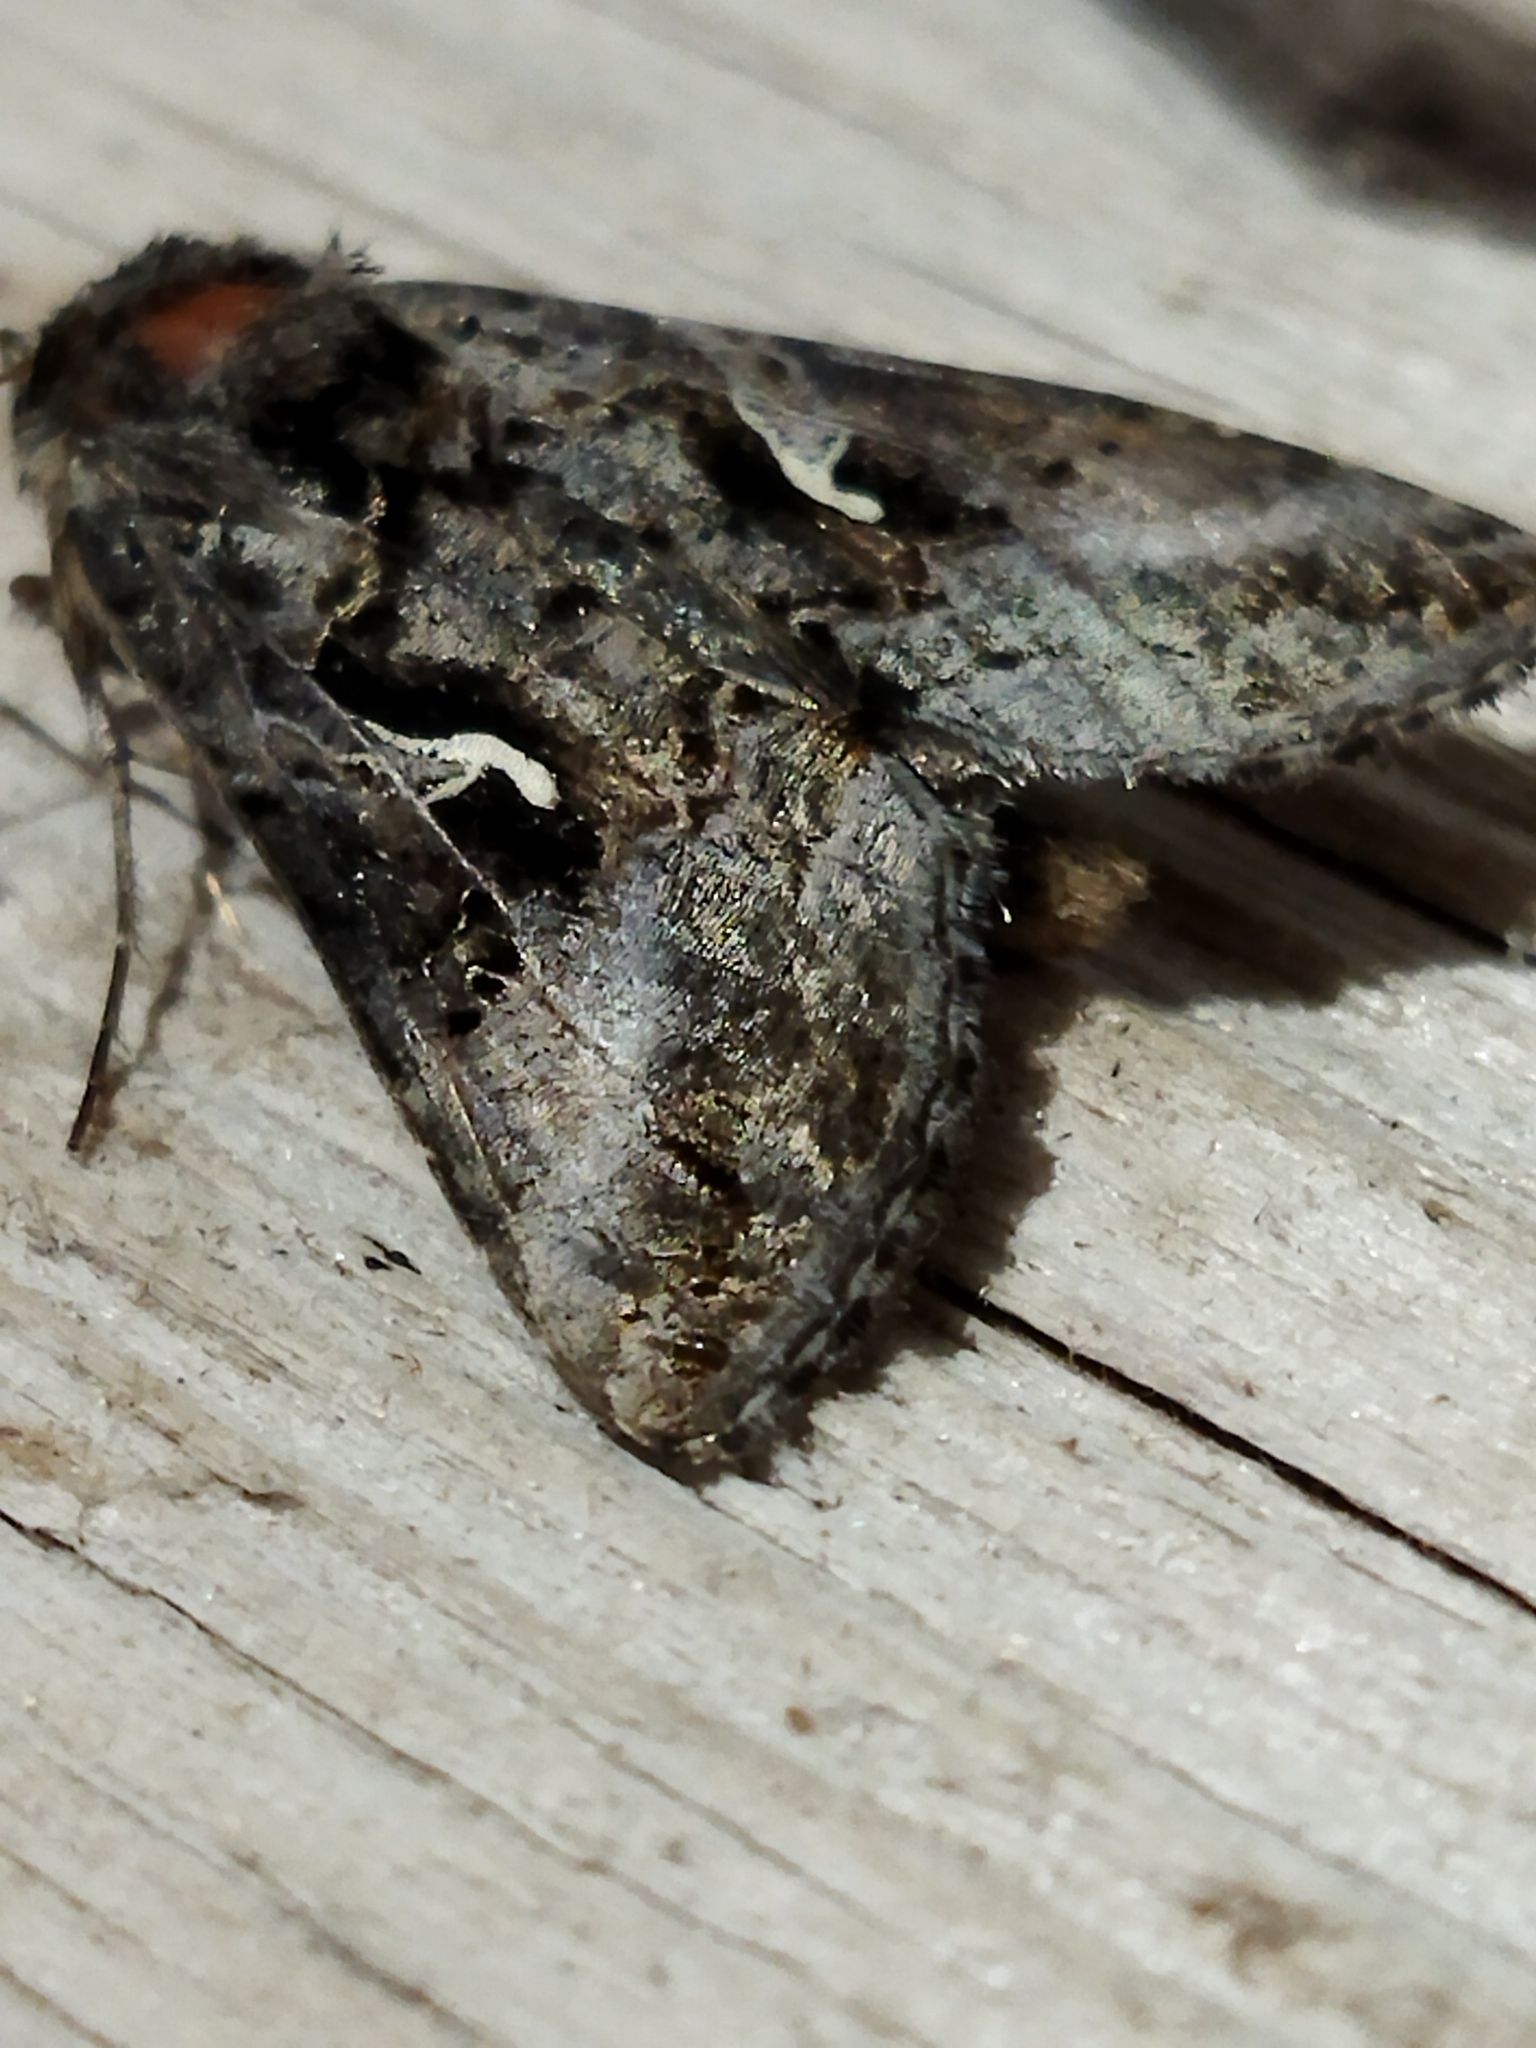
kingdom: Animalia
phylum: Arthropoda
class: Insecta
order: Lepidoptera
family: Noctuidae
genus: Autographa
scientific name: Autographa gamma
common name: Silver y
